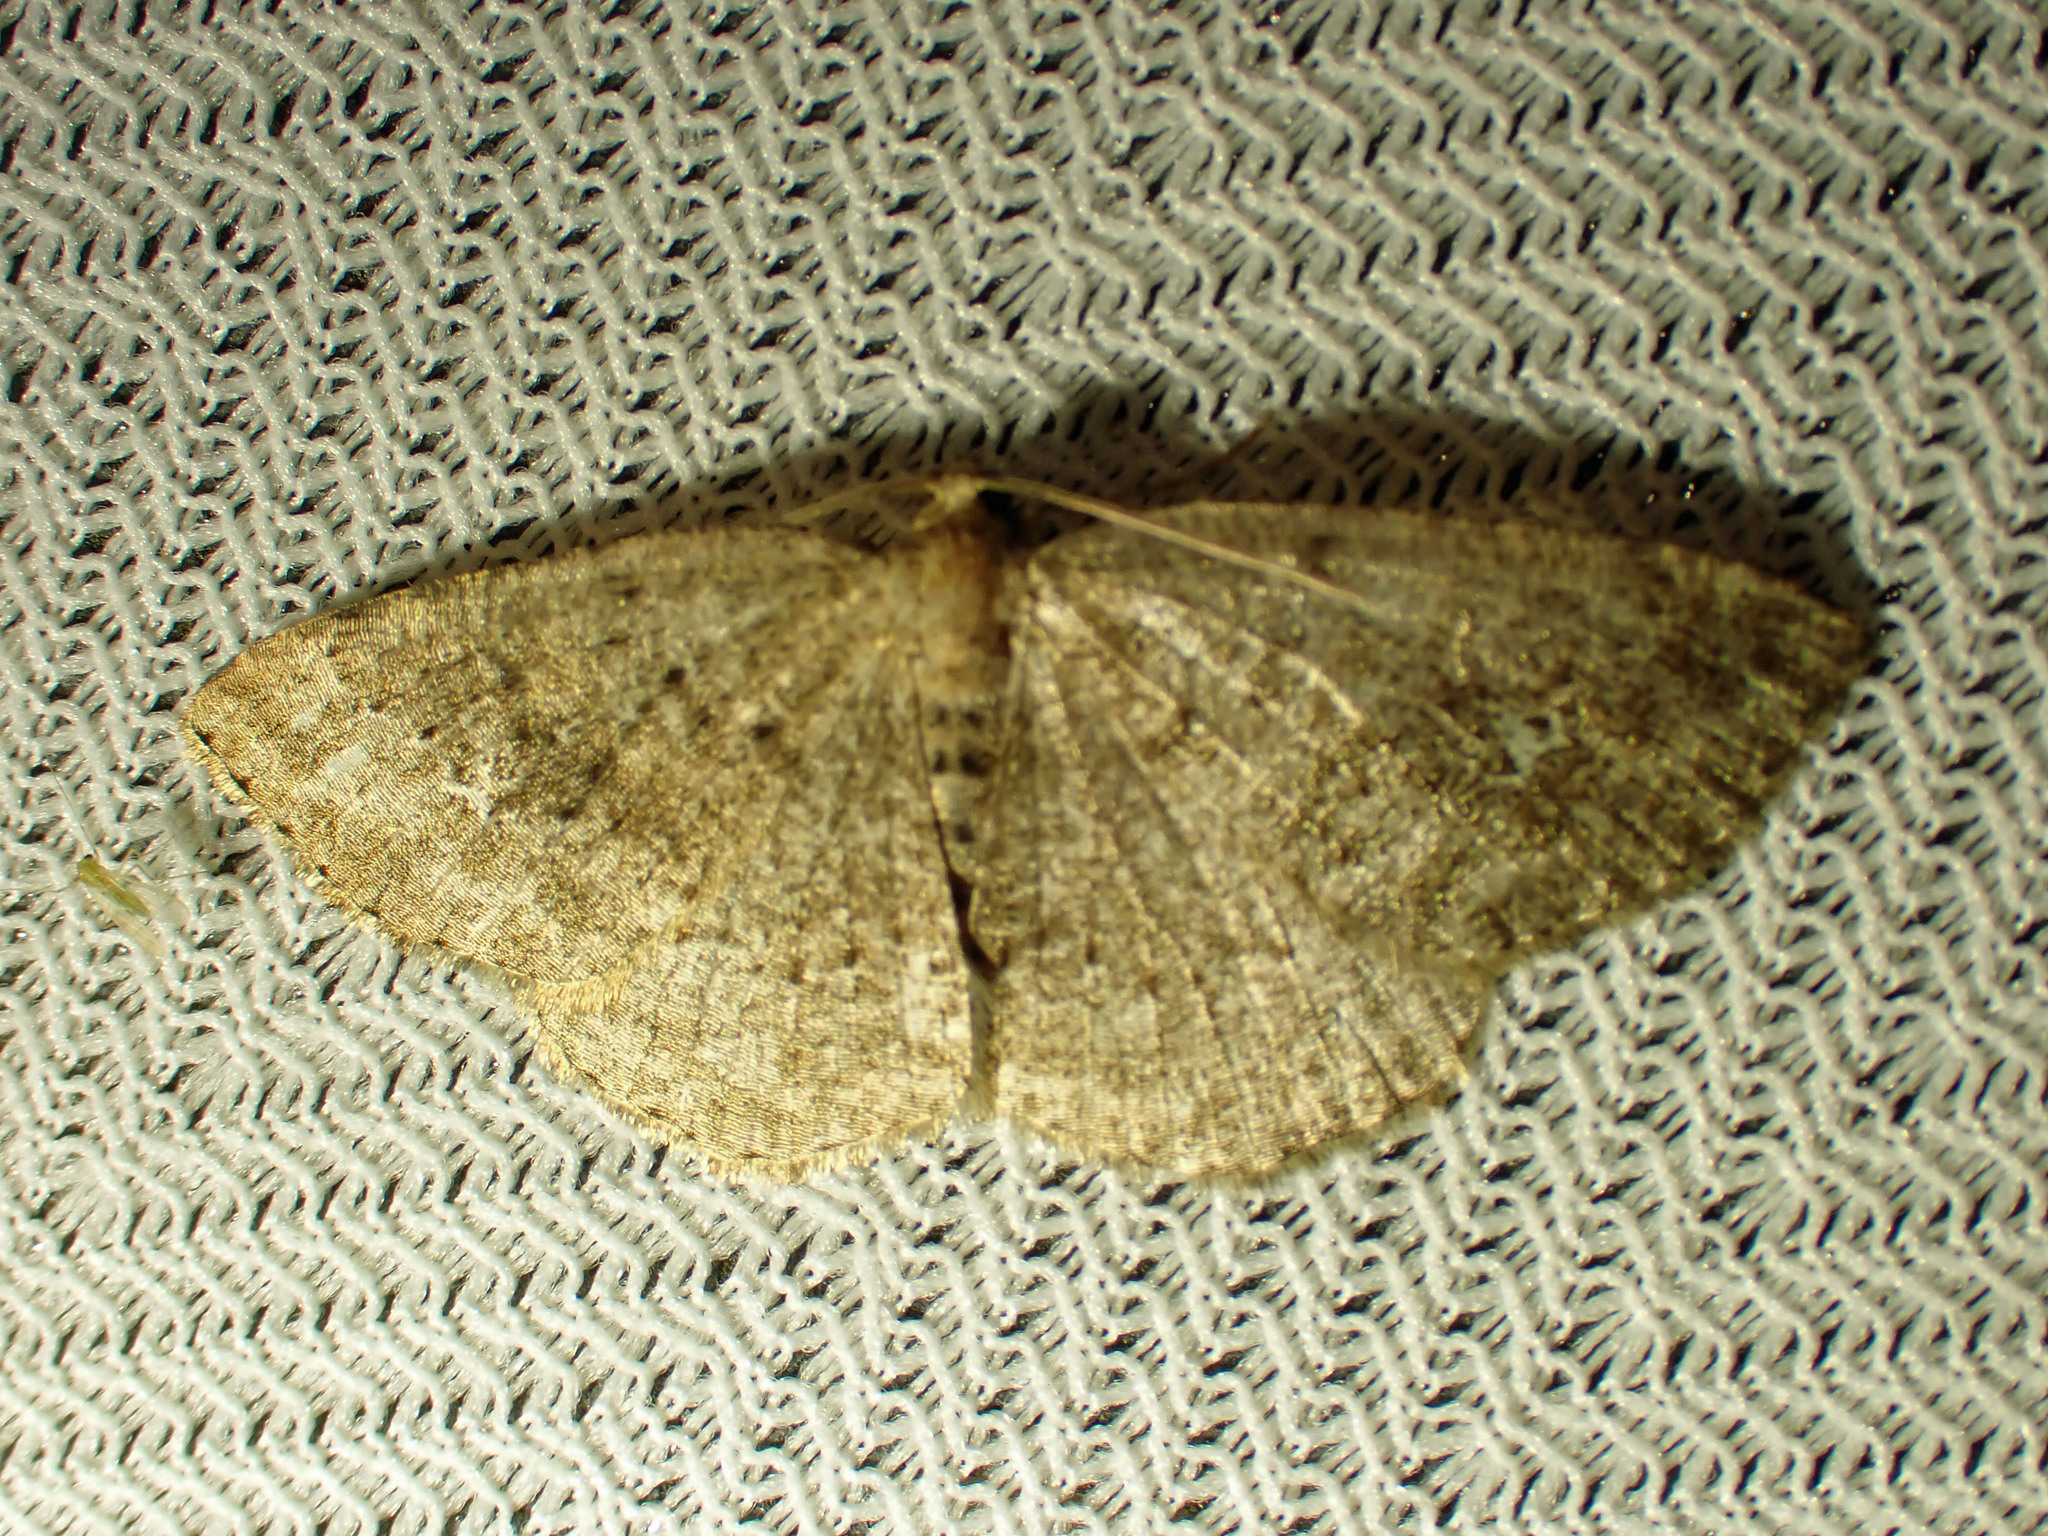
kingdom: Animalia
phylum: Arthropoda
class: Insecta
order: Lepidoptera
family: Geometridae
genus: Homochlodes
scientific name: Homochlodes fritillaria
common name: Pale homochlodes
